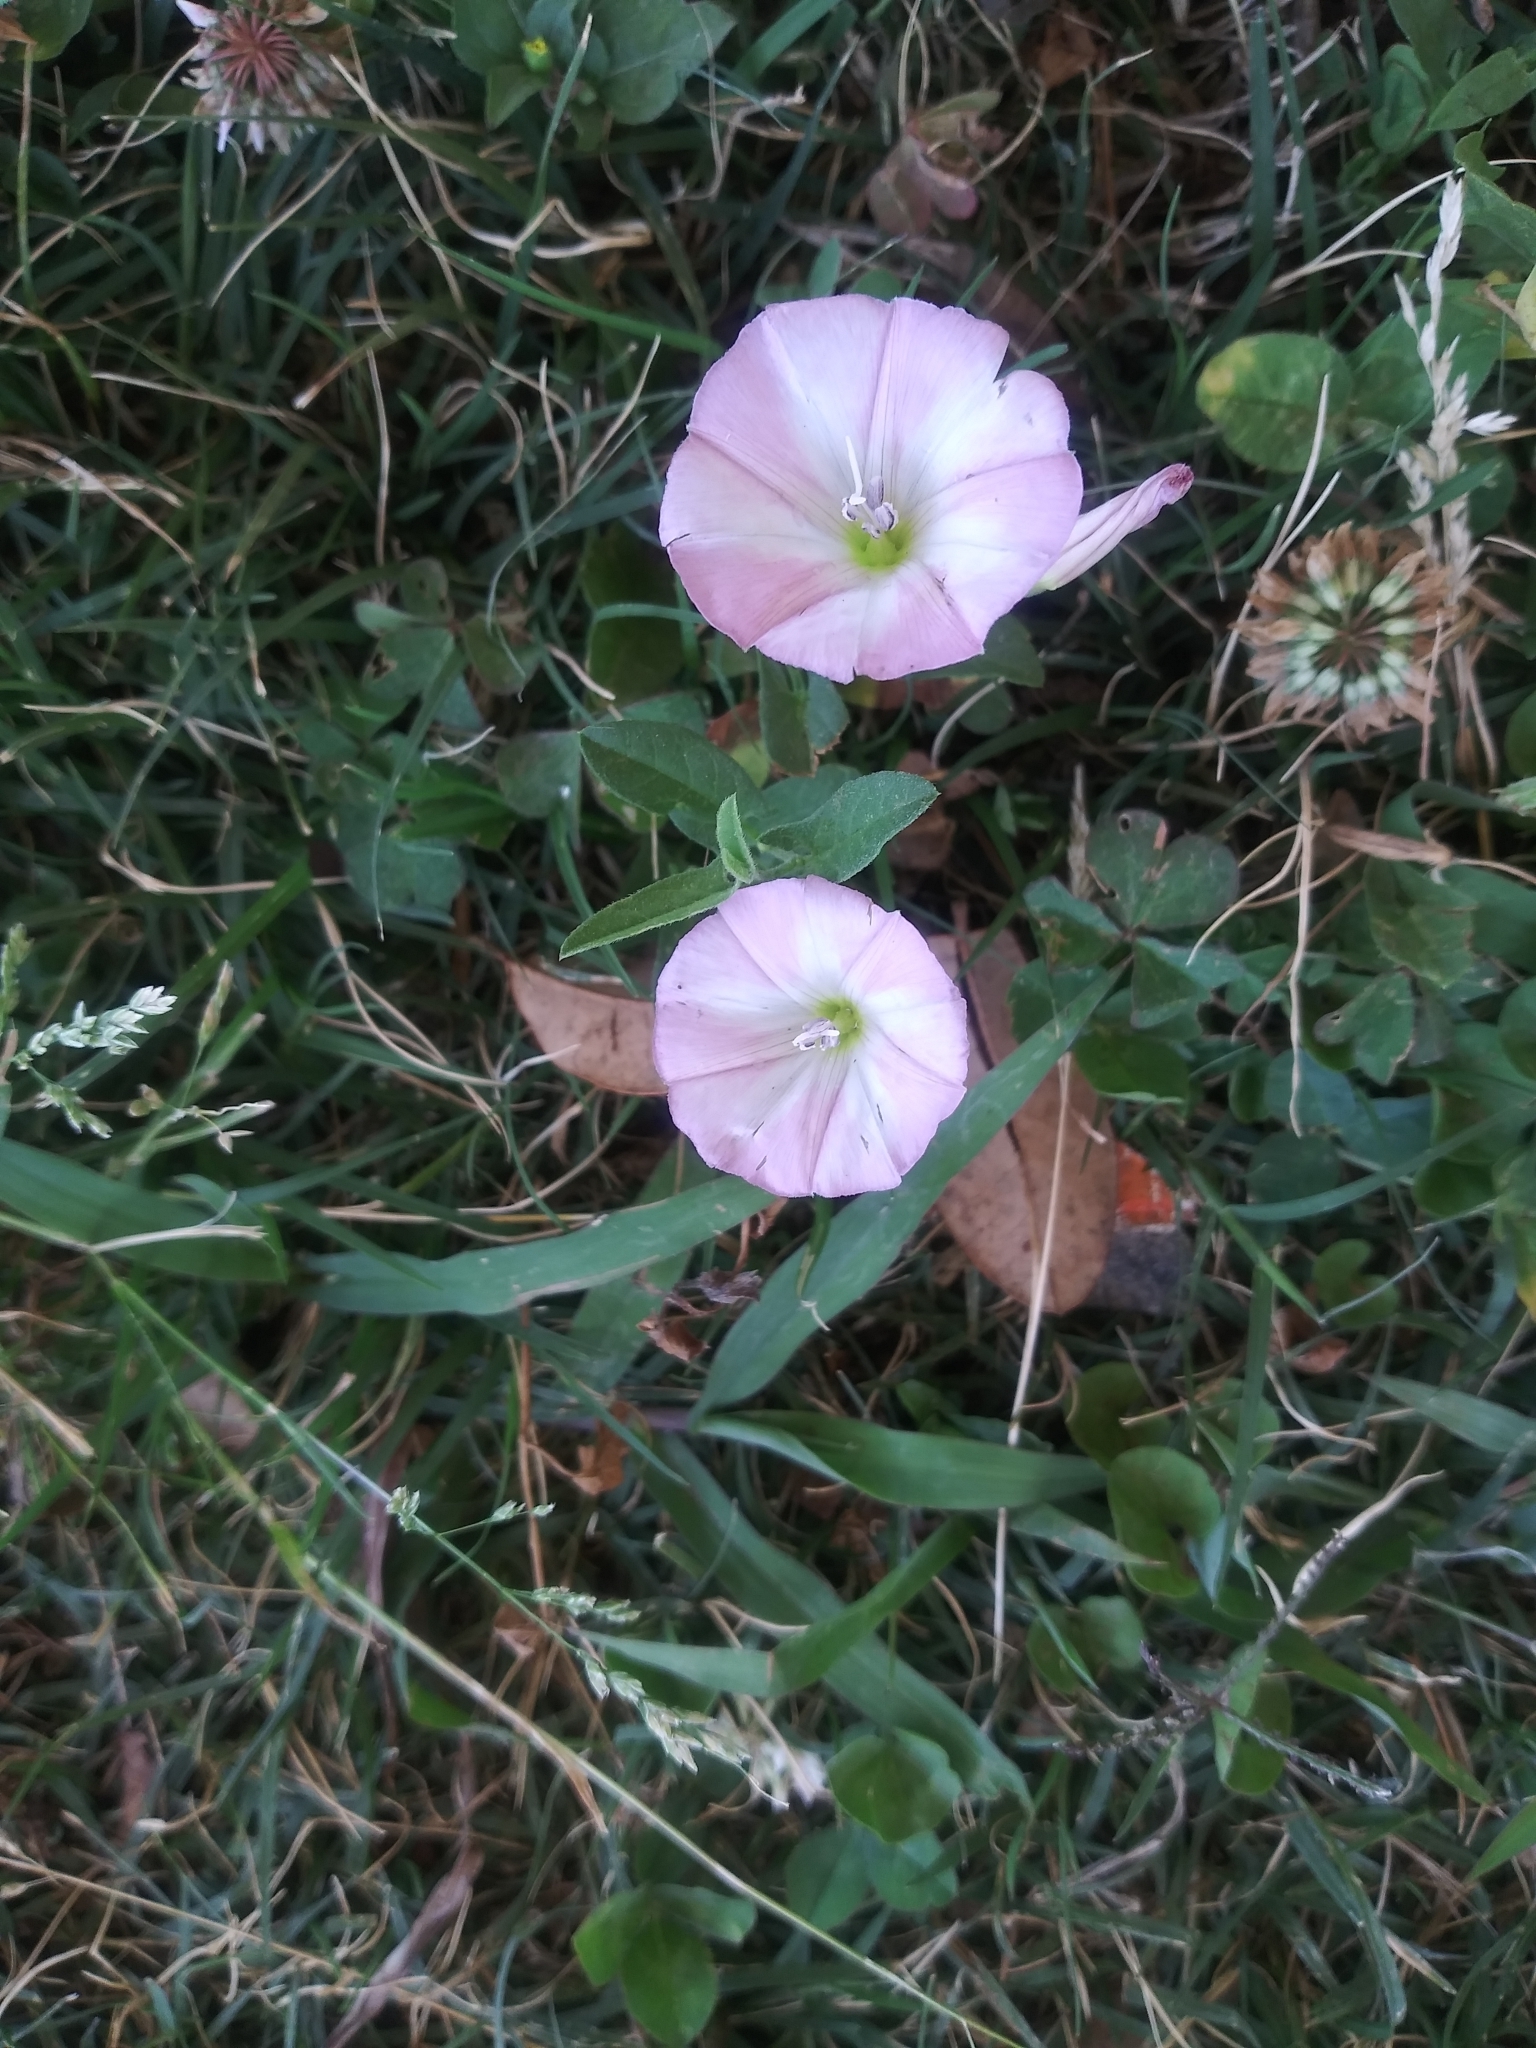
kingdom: Plantae
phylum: Tracheophyta
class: Magnoliopsida
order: Solanales
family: Convolvulaceae
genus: Convolvulus
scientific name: Convolvulus arvensis
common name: Field bindweed
